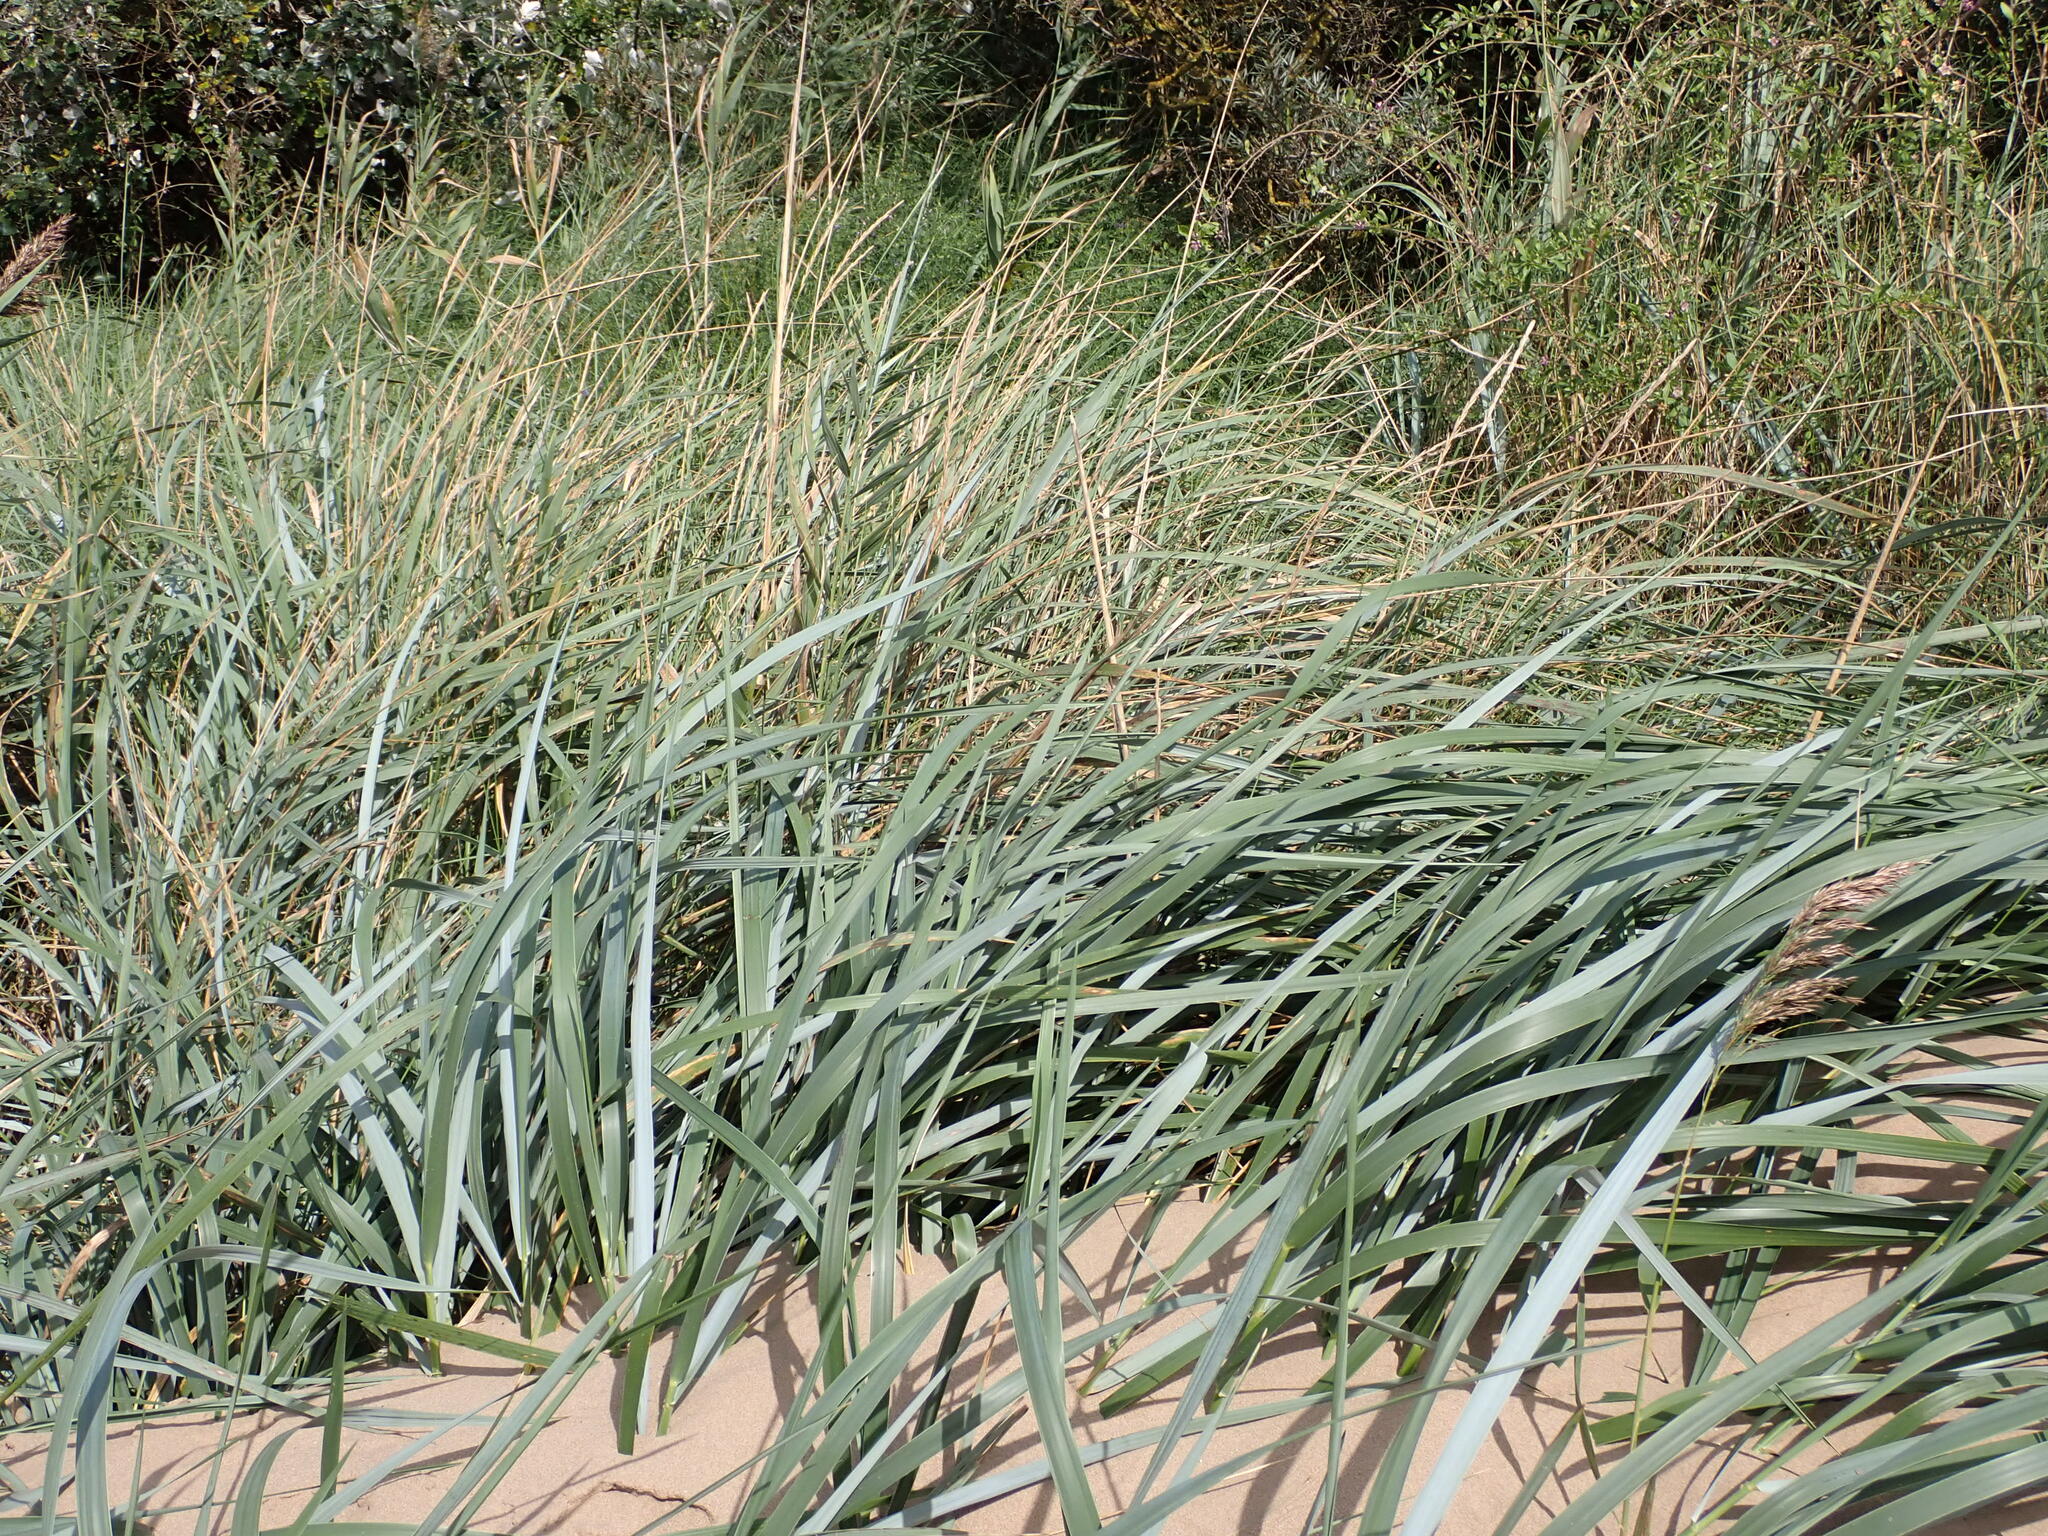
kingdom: Plantae
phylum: Tracheophyta
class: Liliopsida
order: Poales
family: Poaceae
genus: Leymus
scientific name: Leymus arenarius
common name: Lyme-grass
